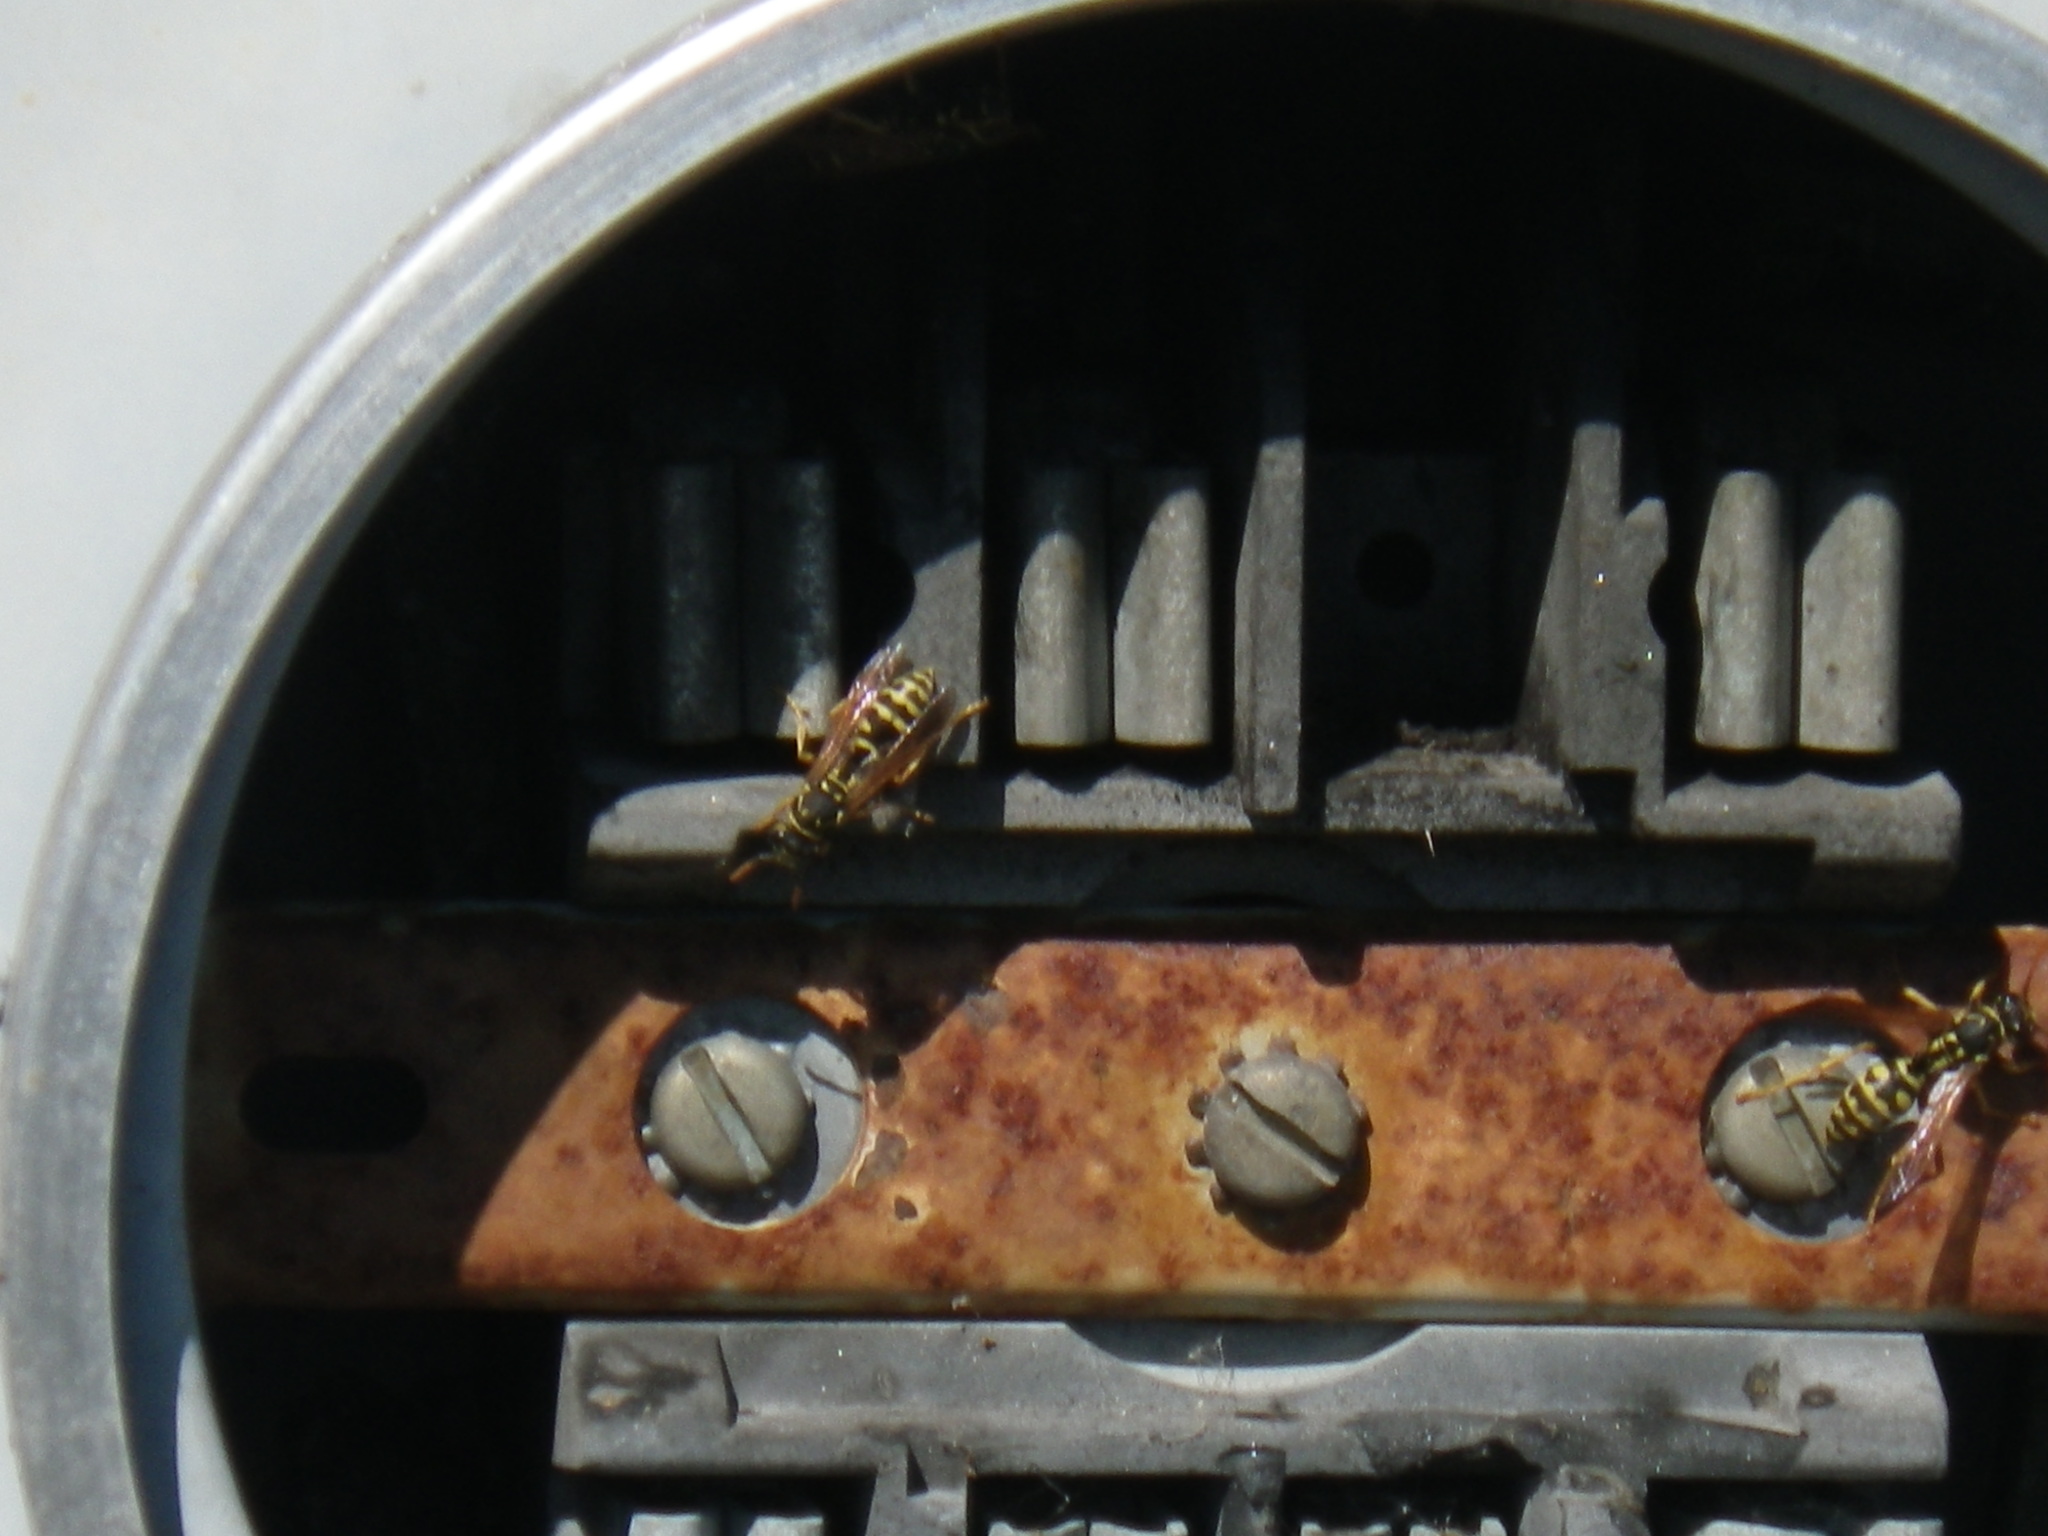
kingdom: Animalia
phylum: Arthropoda
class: Insecta
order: Hymenoptera
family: Eumenidae
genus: Polistes
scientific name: Polistes dominula
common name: Paper wasp
